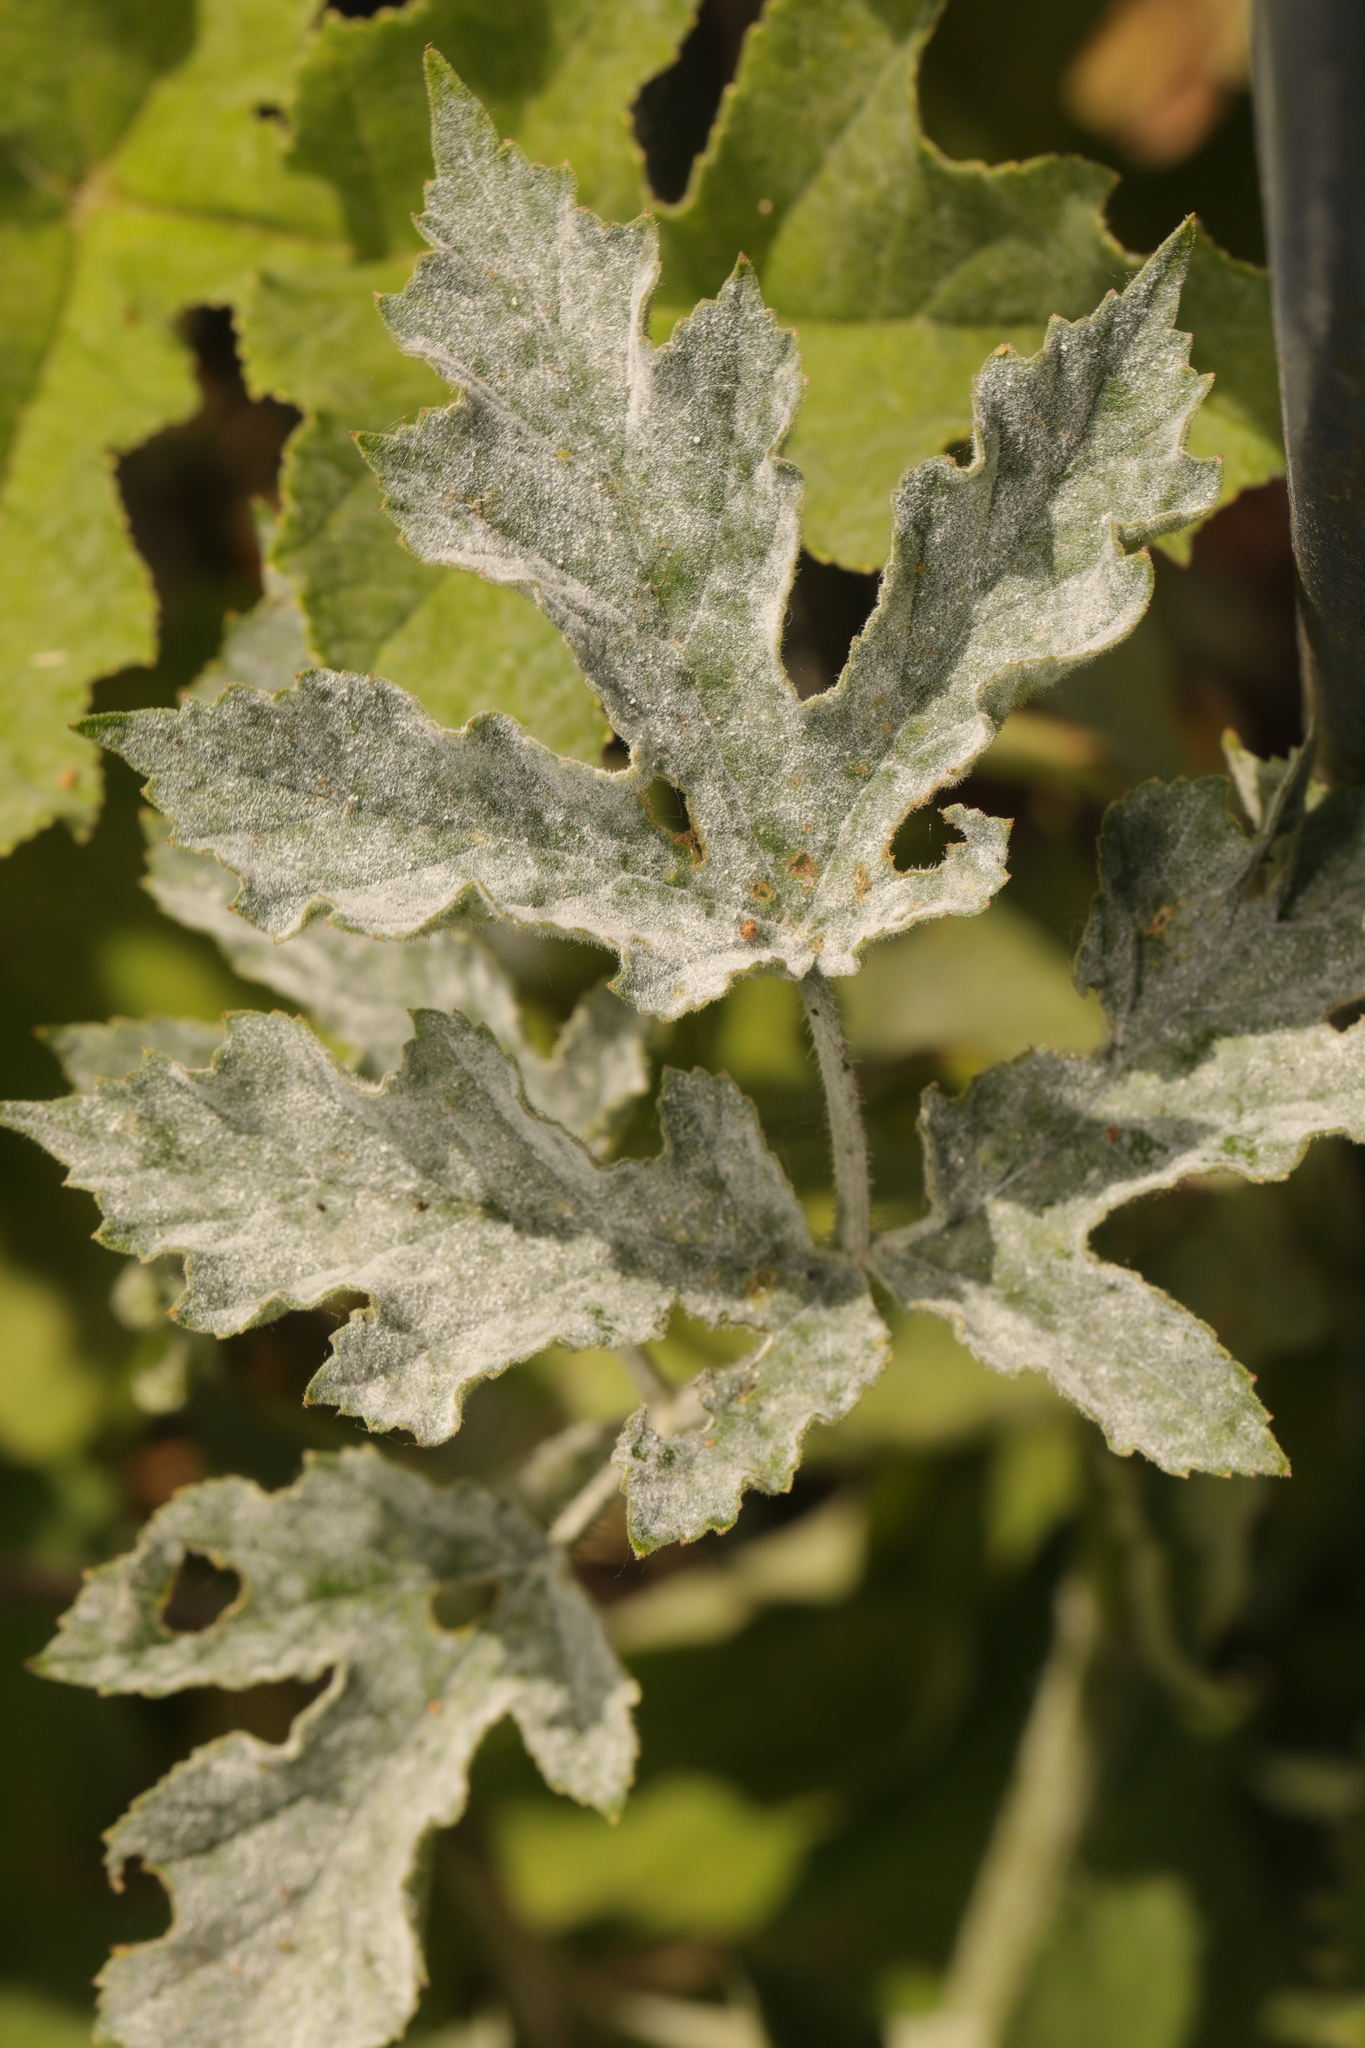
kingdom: Fungi
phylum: Ascomycota
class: Leotiomycetes
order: Helotiales
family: Erysiphaceae
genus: Erysiphe
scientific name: Erysiphe heraclei
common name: Umbellifer mildew
